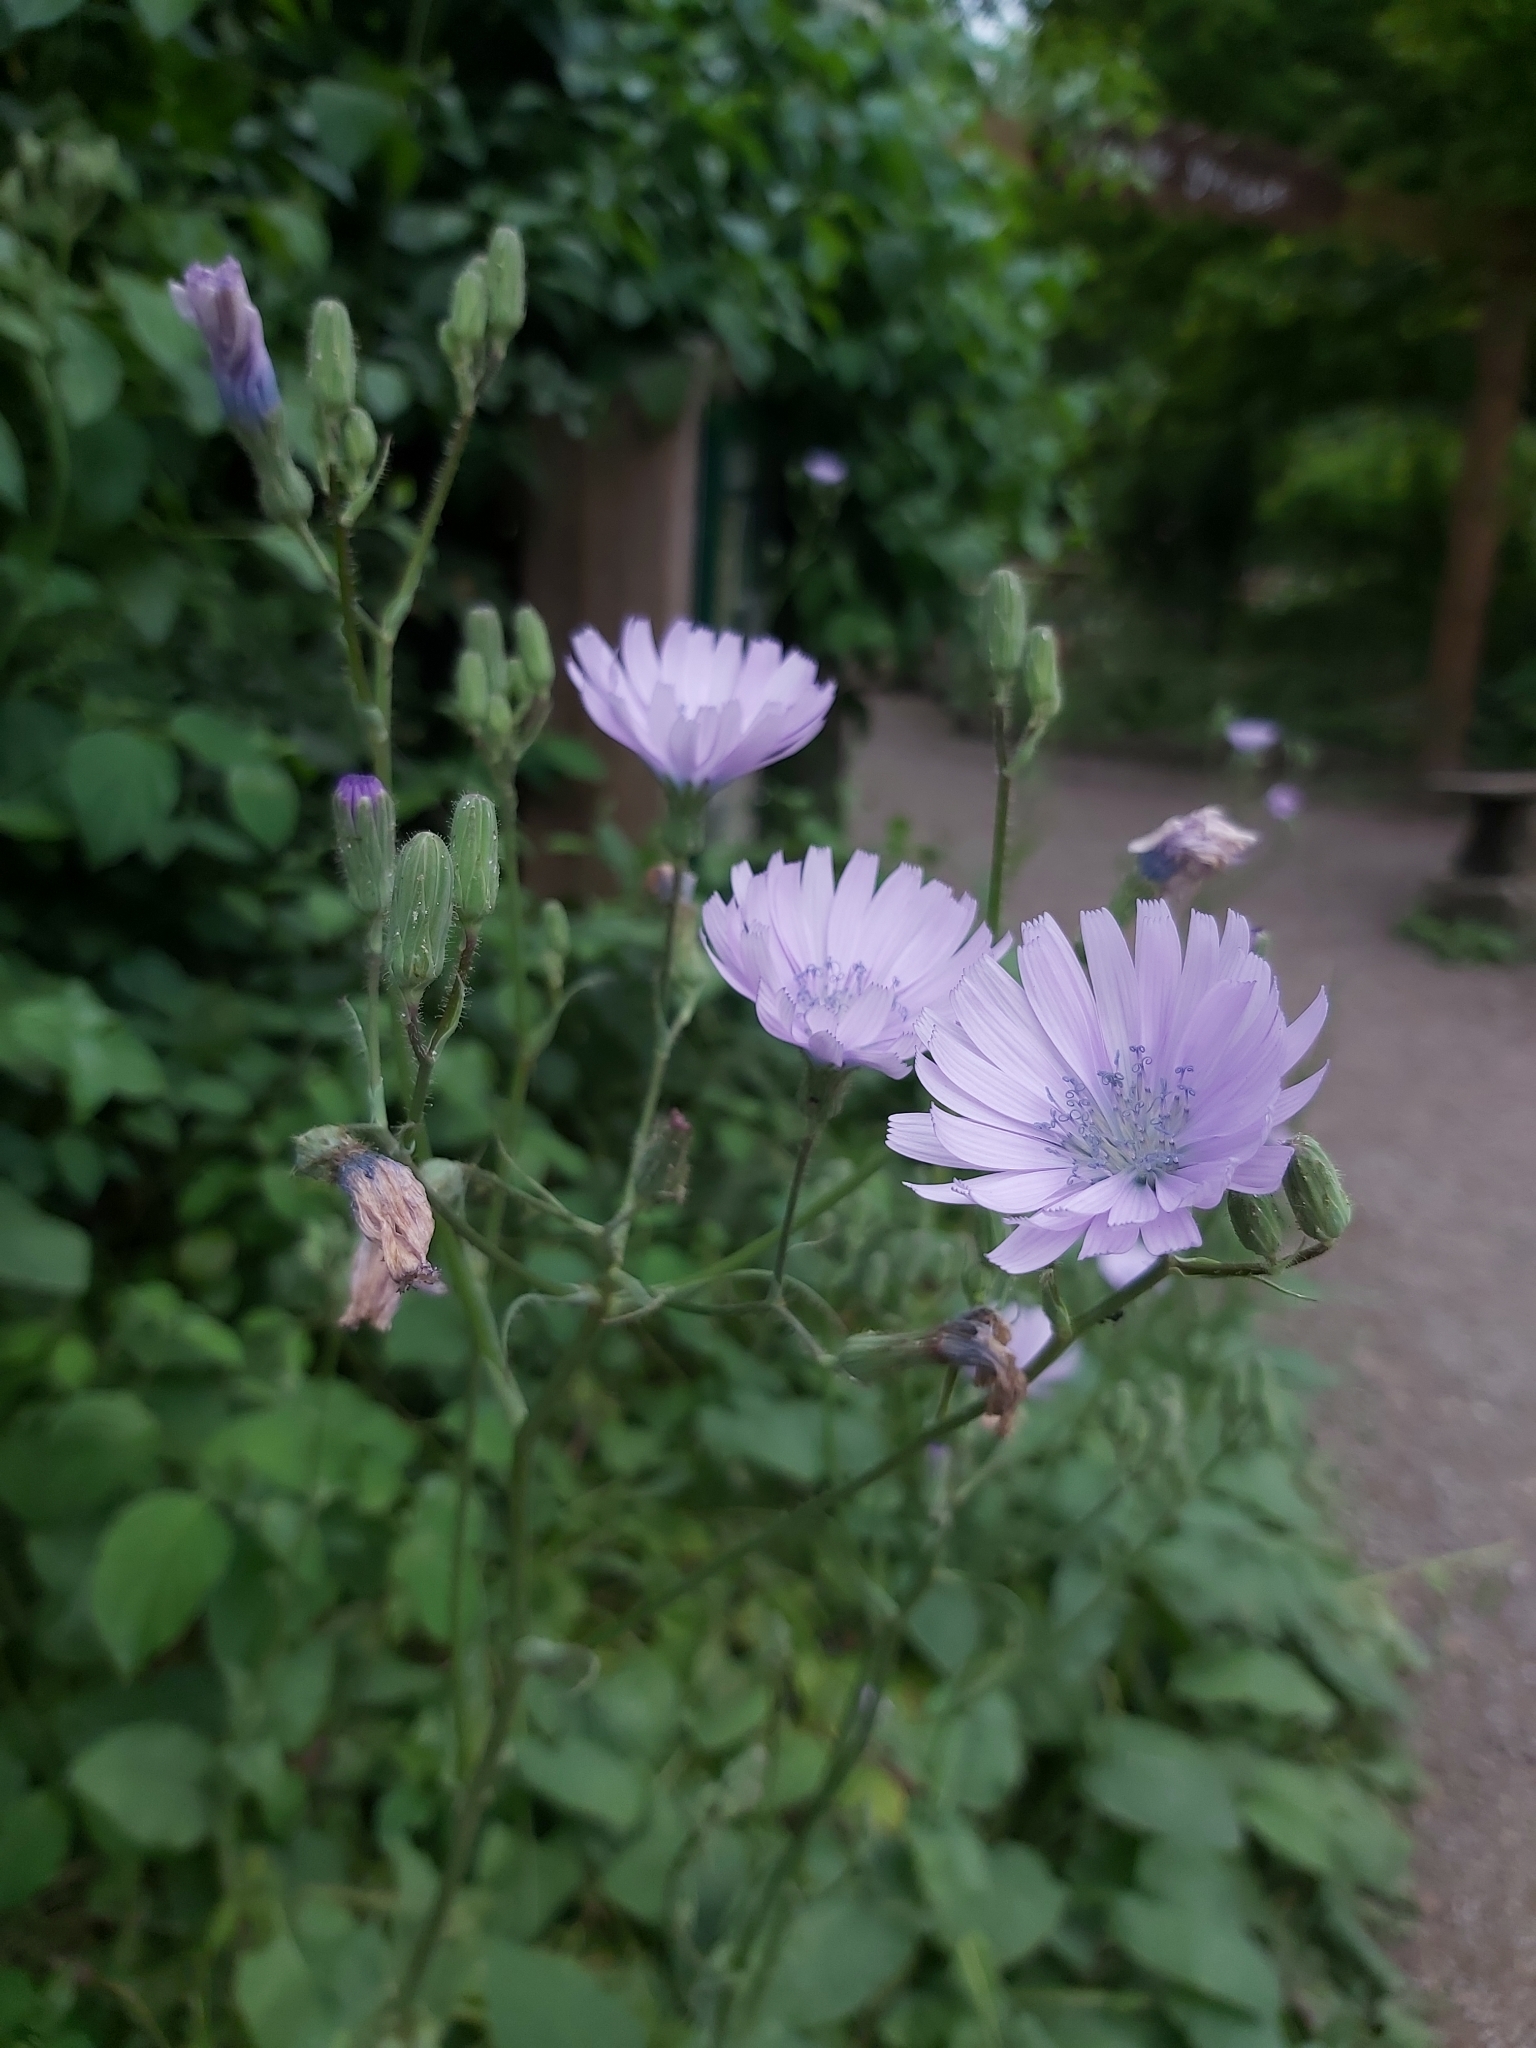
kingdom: Plantae
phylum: Tracheophyta
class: Magnoliopsida
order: Asterales
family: Asteraceae
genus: Lactuca
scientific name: Lactuca macrophylla
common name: Common blue-sow-thistle
